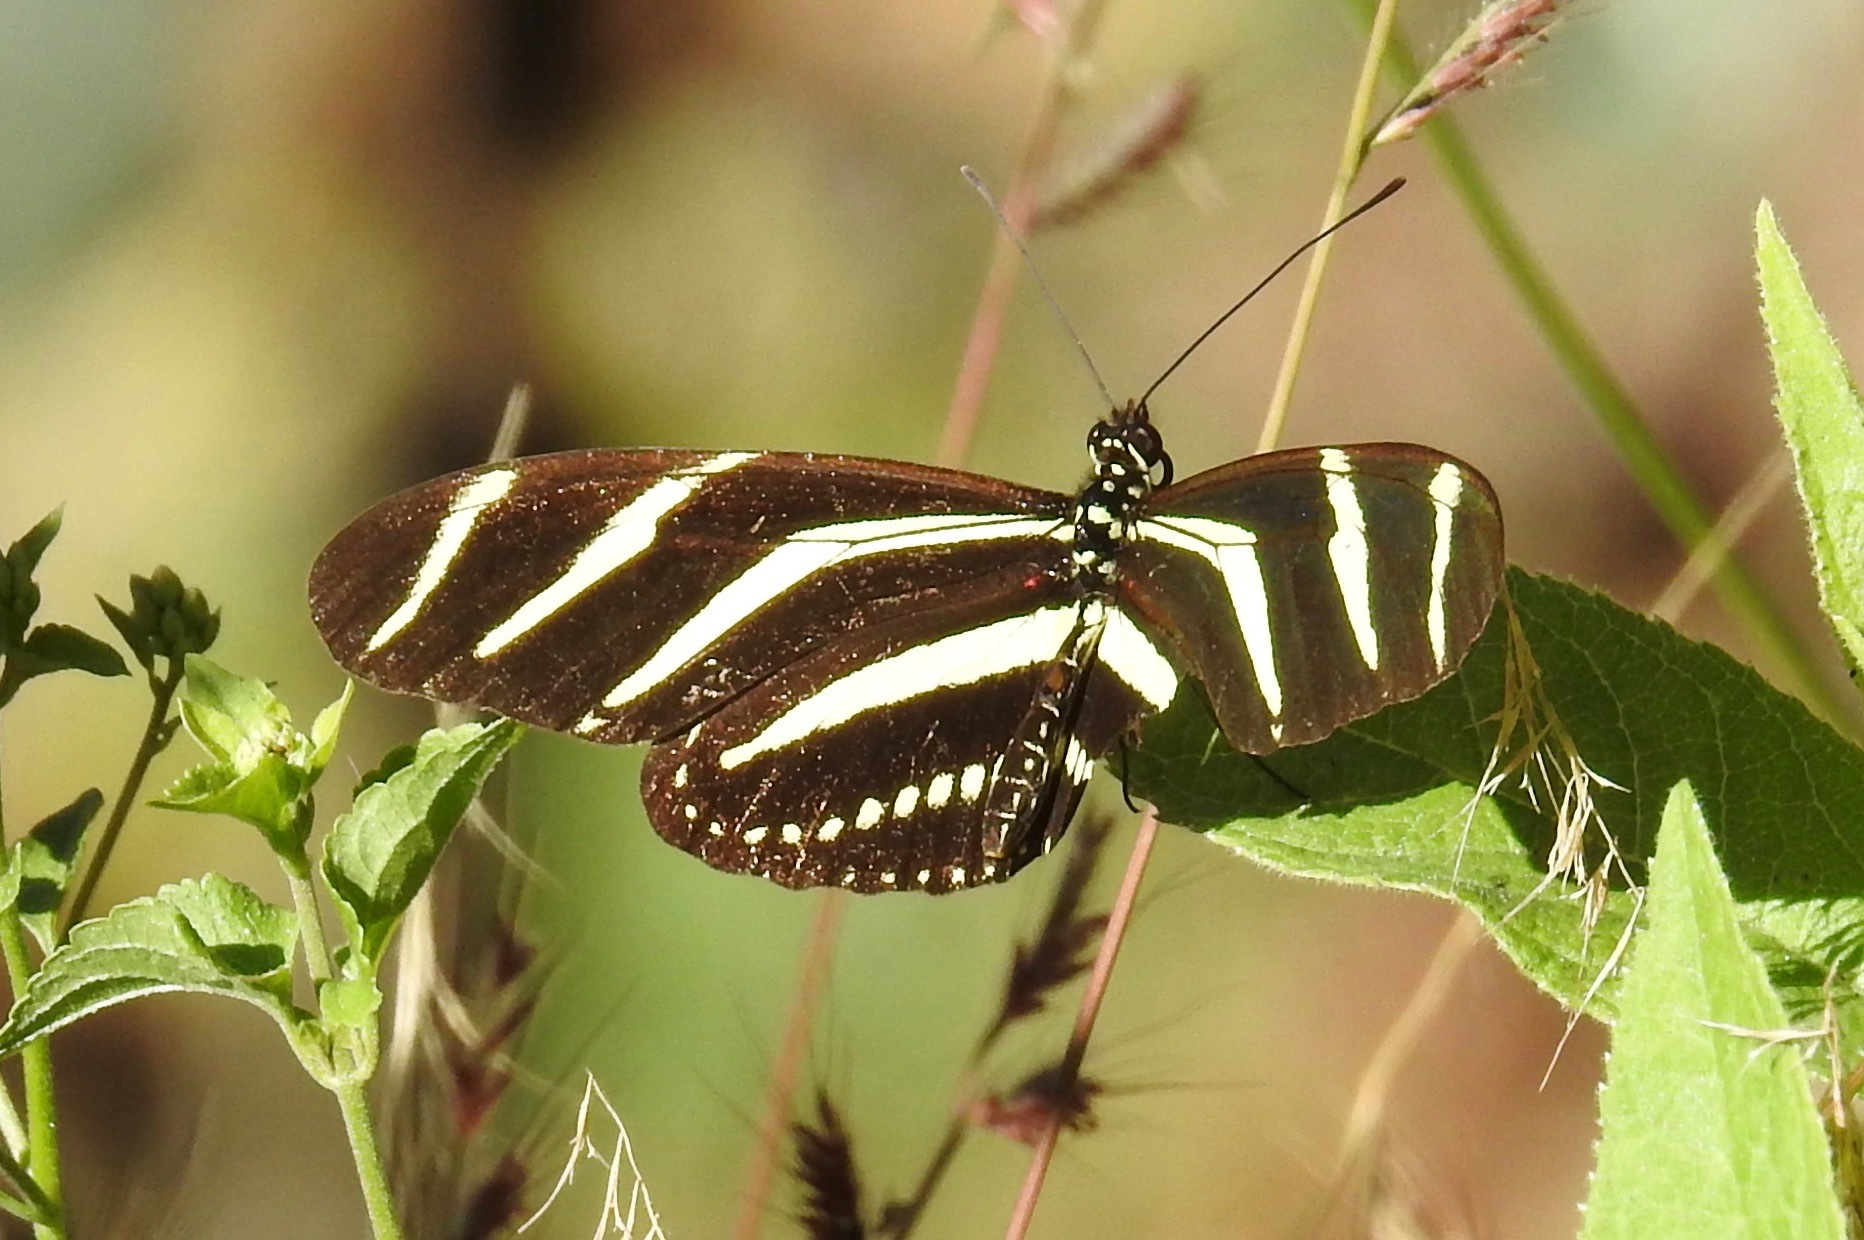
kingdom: Animalia
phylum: Arthropoda
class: Insecta
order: Lepidoptera
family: Nymphalidae
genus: Heliconius
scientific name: Heliconius charithonia
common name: Zebra long wing
